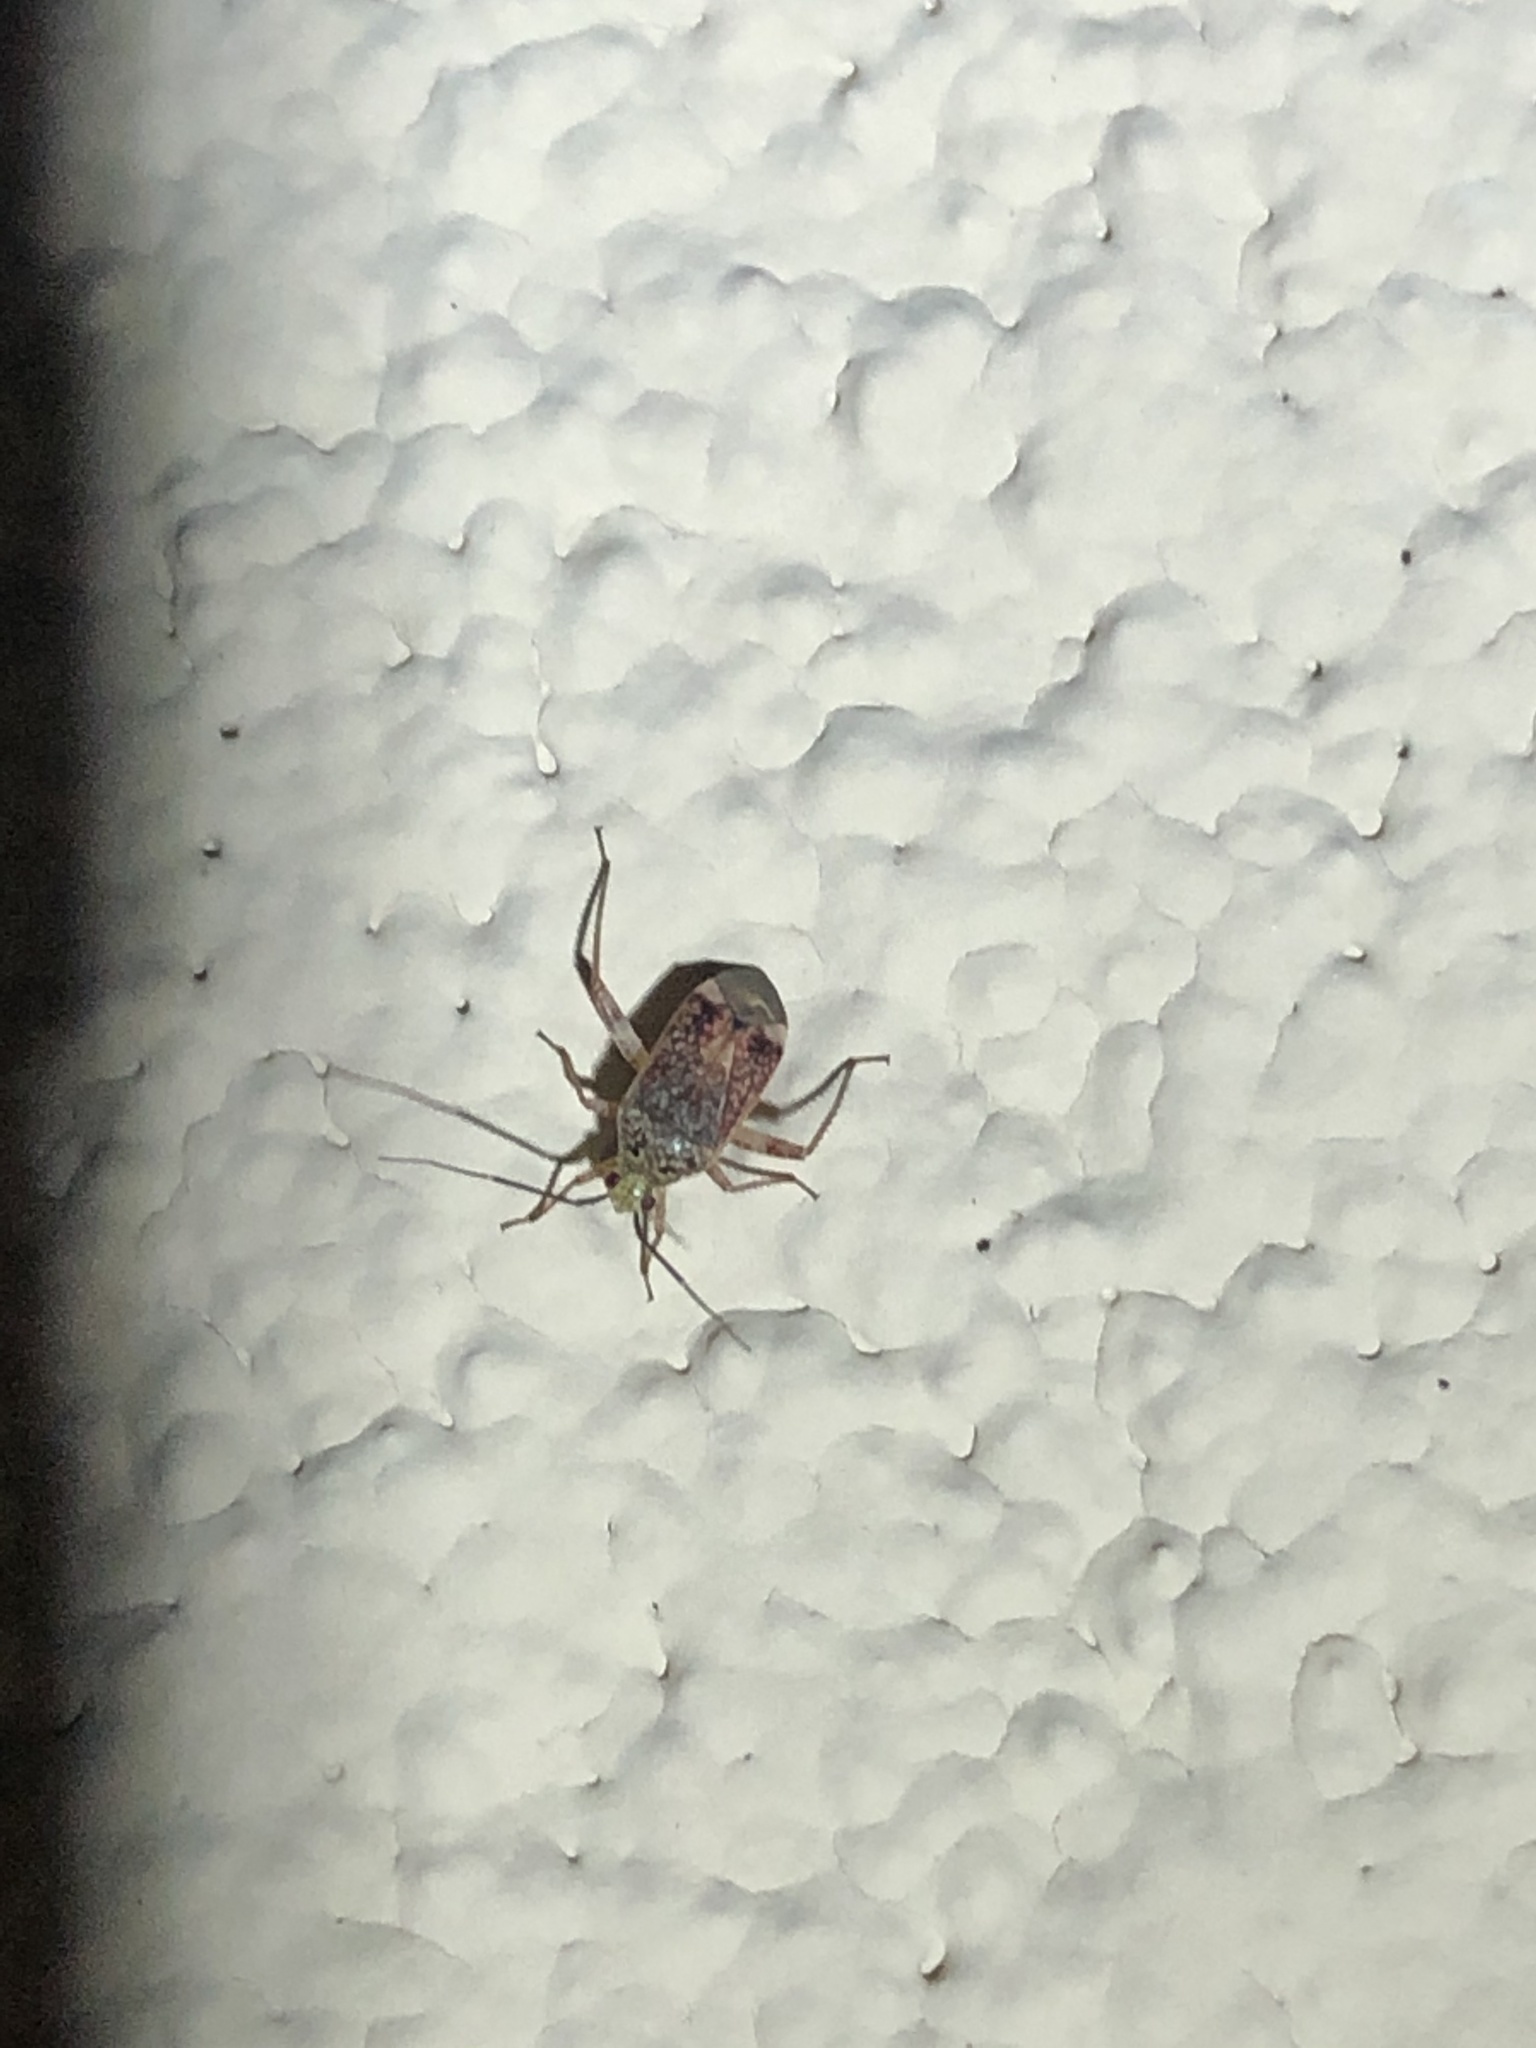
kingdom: Animalia
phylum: Arthropoda
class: Insecta
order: Hemiptera
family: Miridae
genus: Taedia
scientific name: Taedia nicholi
